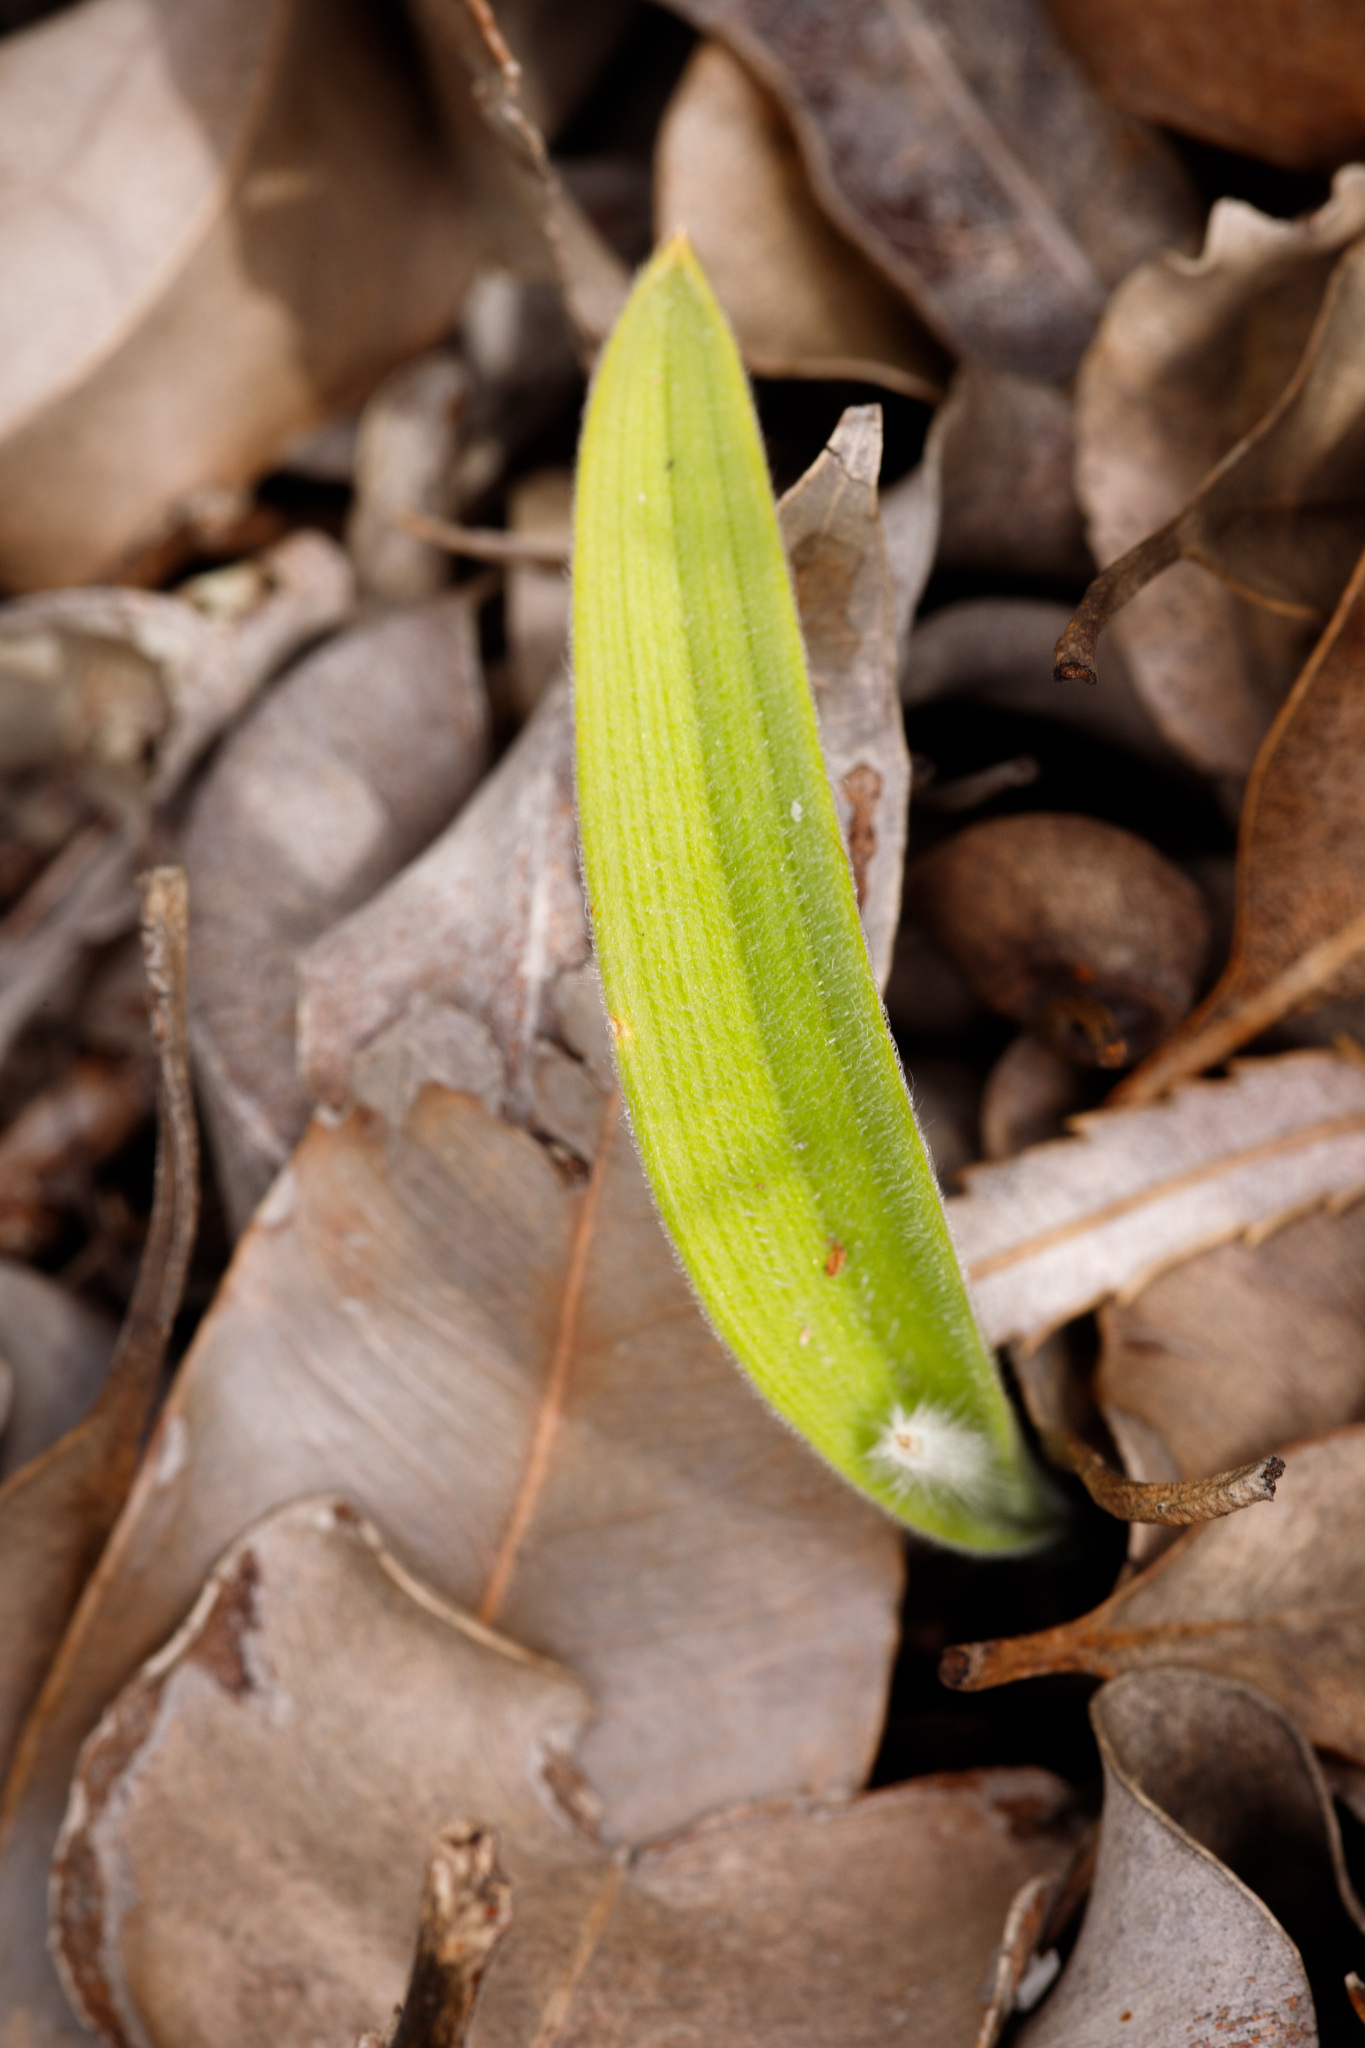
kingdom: Plantae
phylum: Tracheophyta
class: Liliopsida
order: Asparagales
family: Orchidaceae
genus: Caladenia
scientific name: Caladenia latifolia
